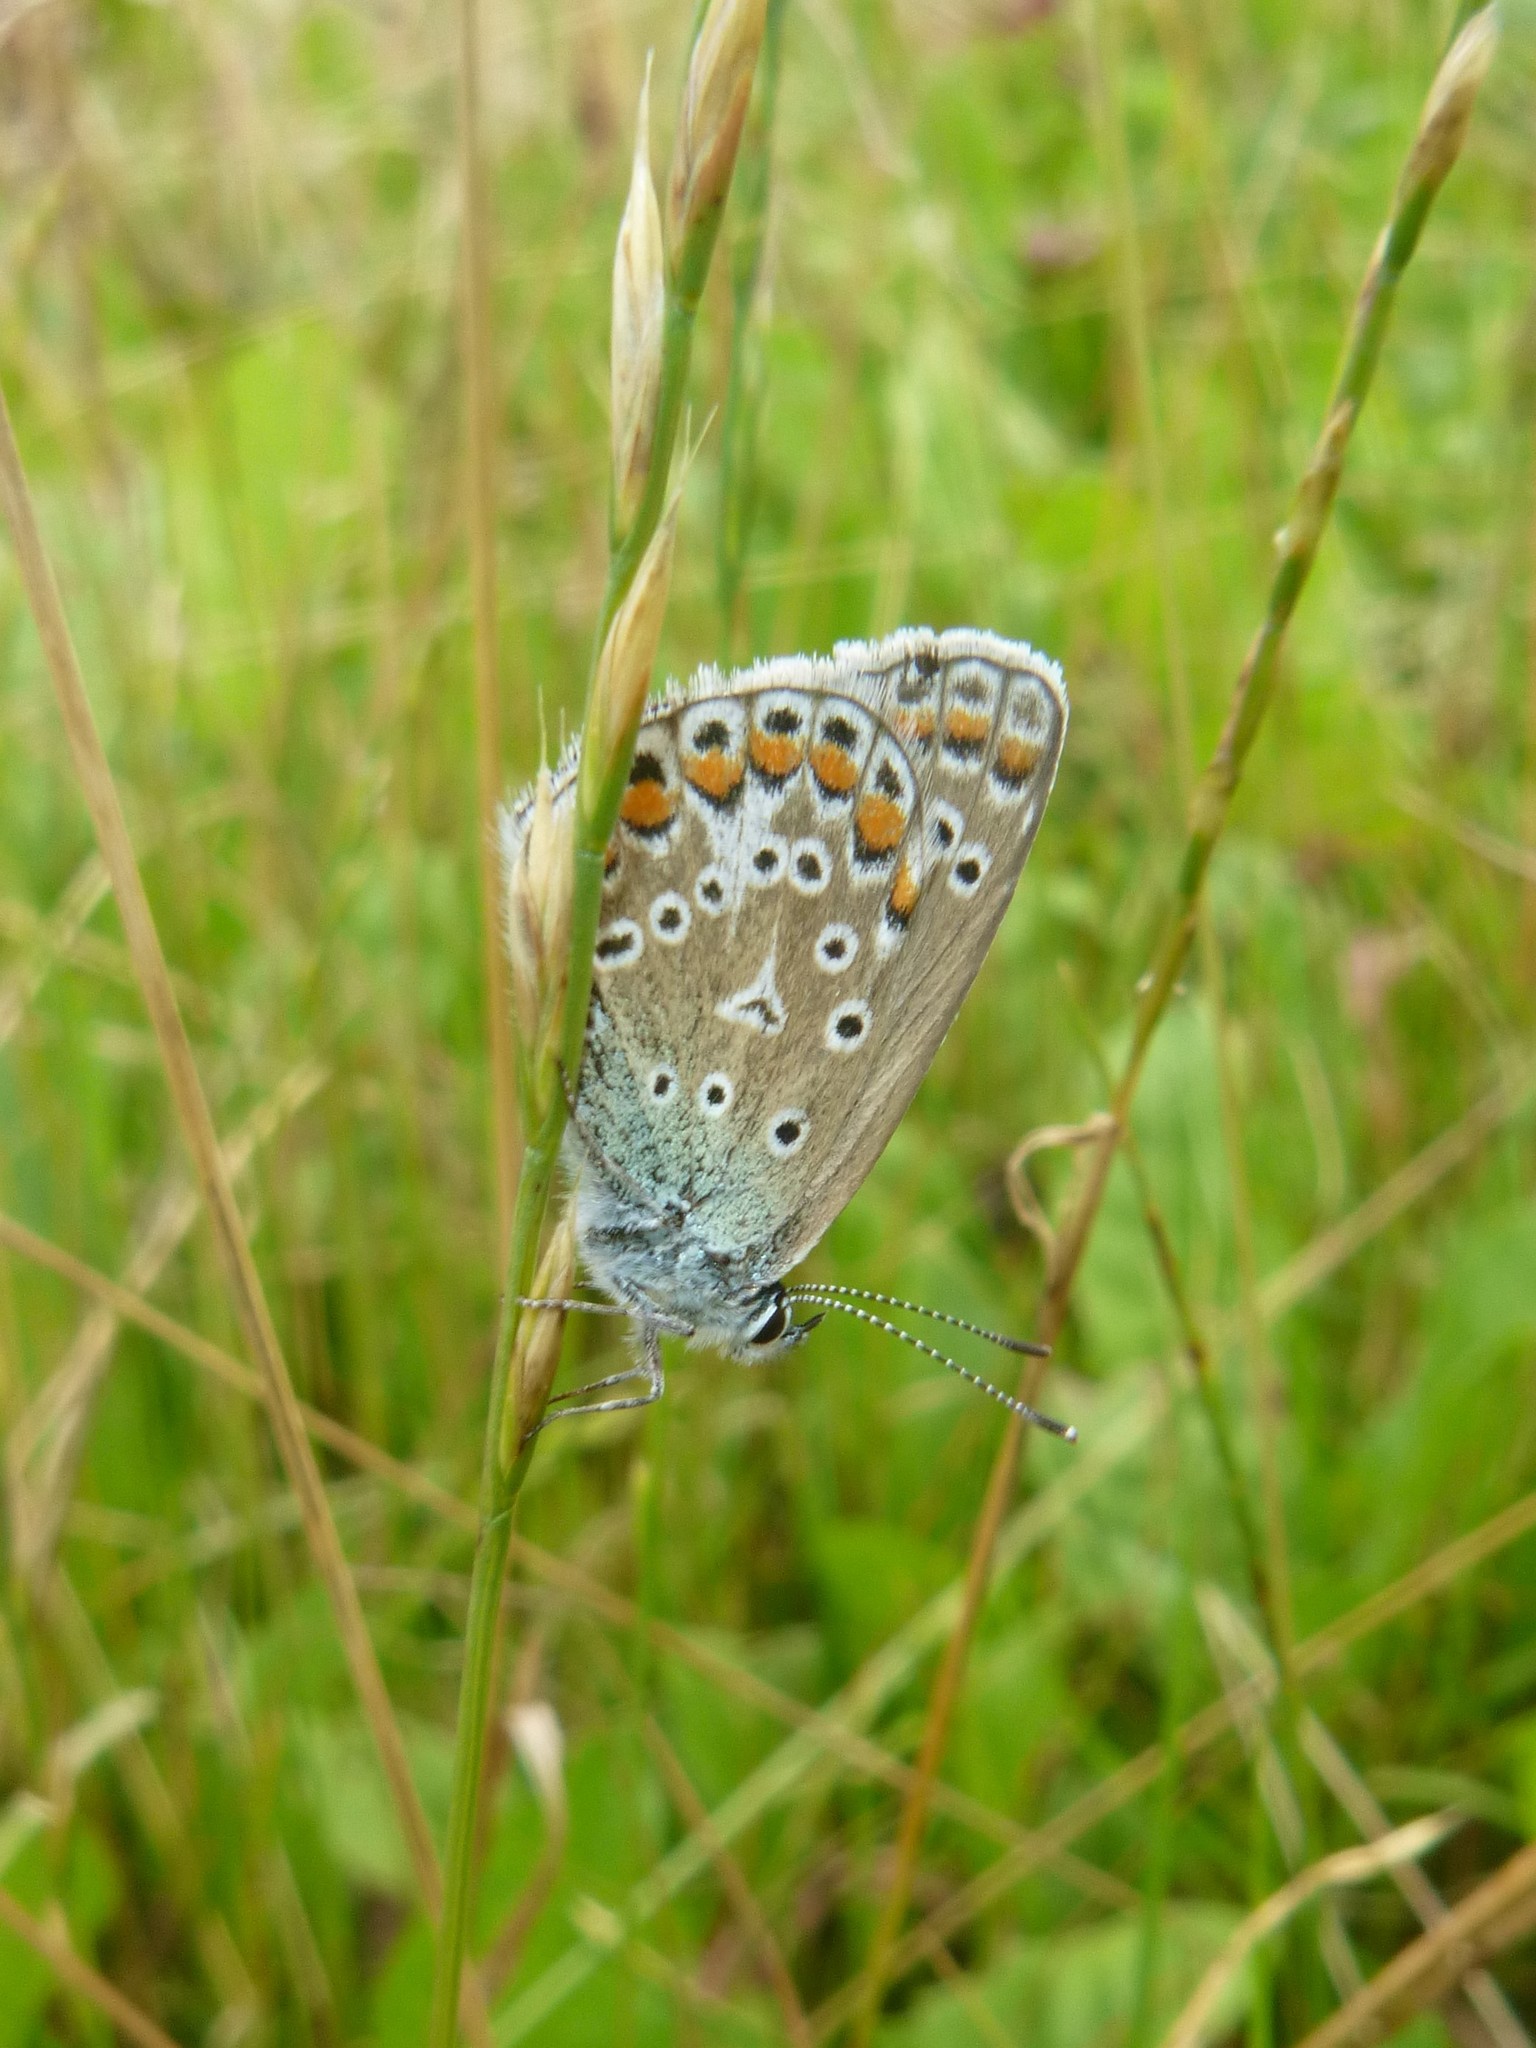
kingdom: Animalia
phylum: Arthropoda
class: Insecta
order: Lepidoptera
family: Lycaenidae
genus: Polyommatus
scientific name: Polyommatus icarus
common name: Common blue
